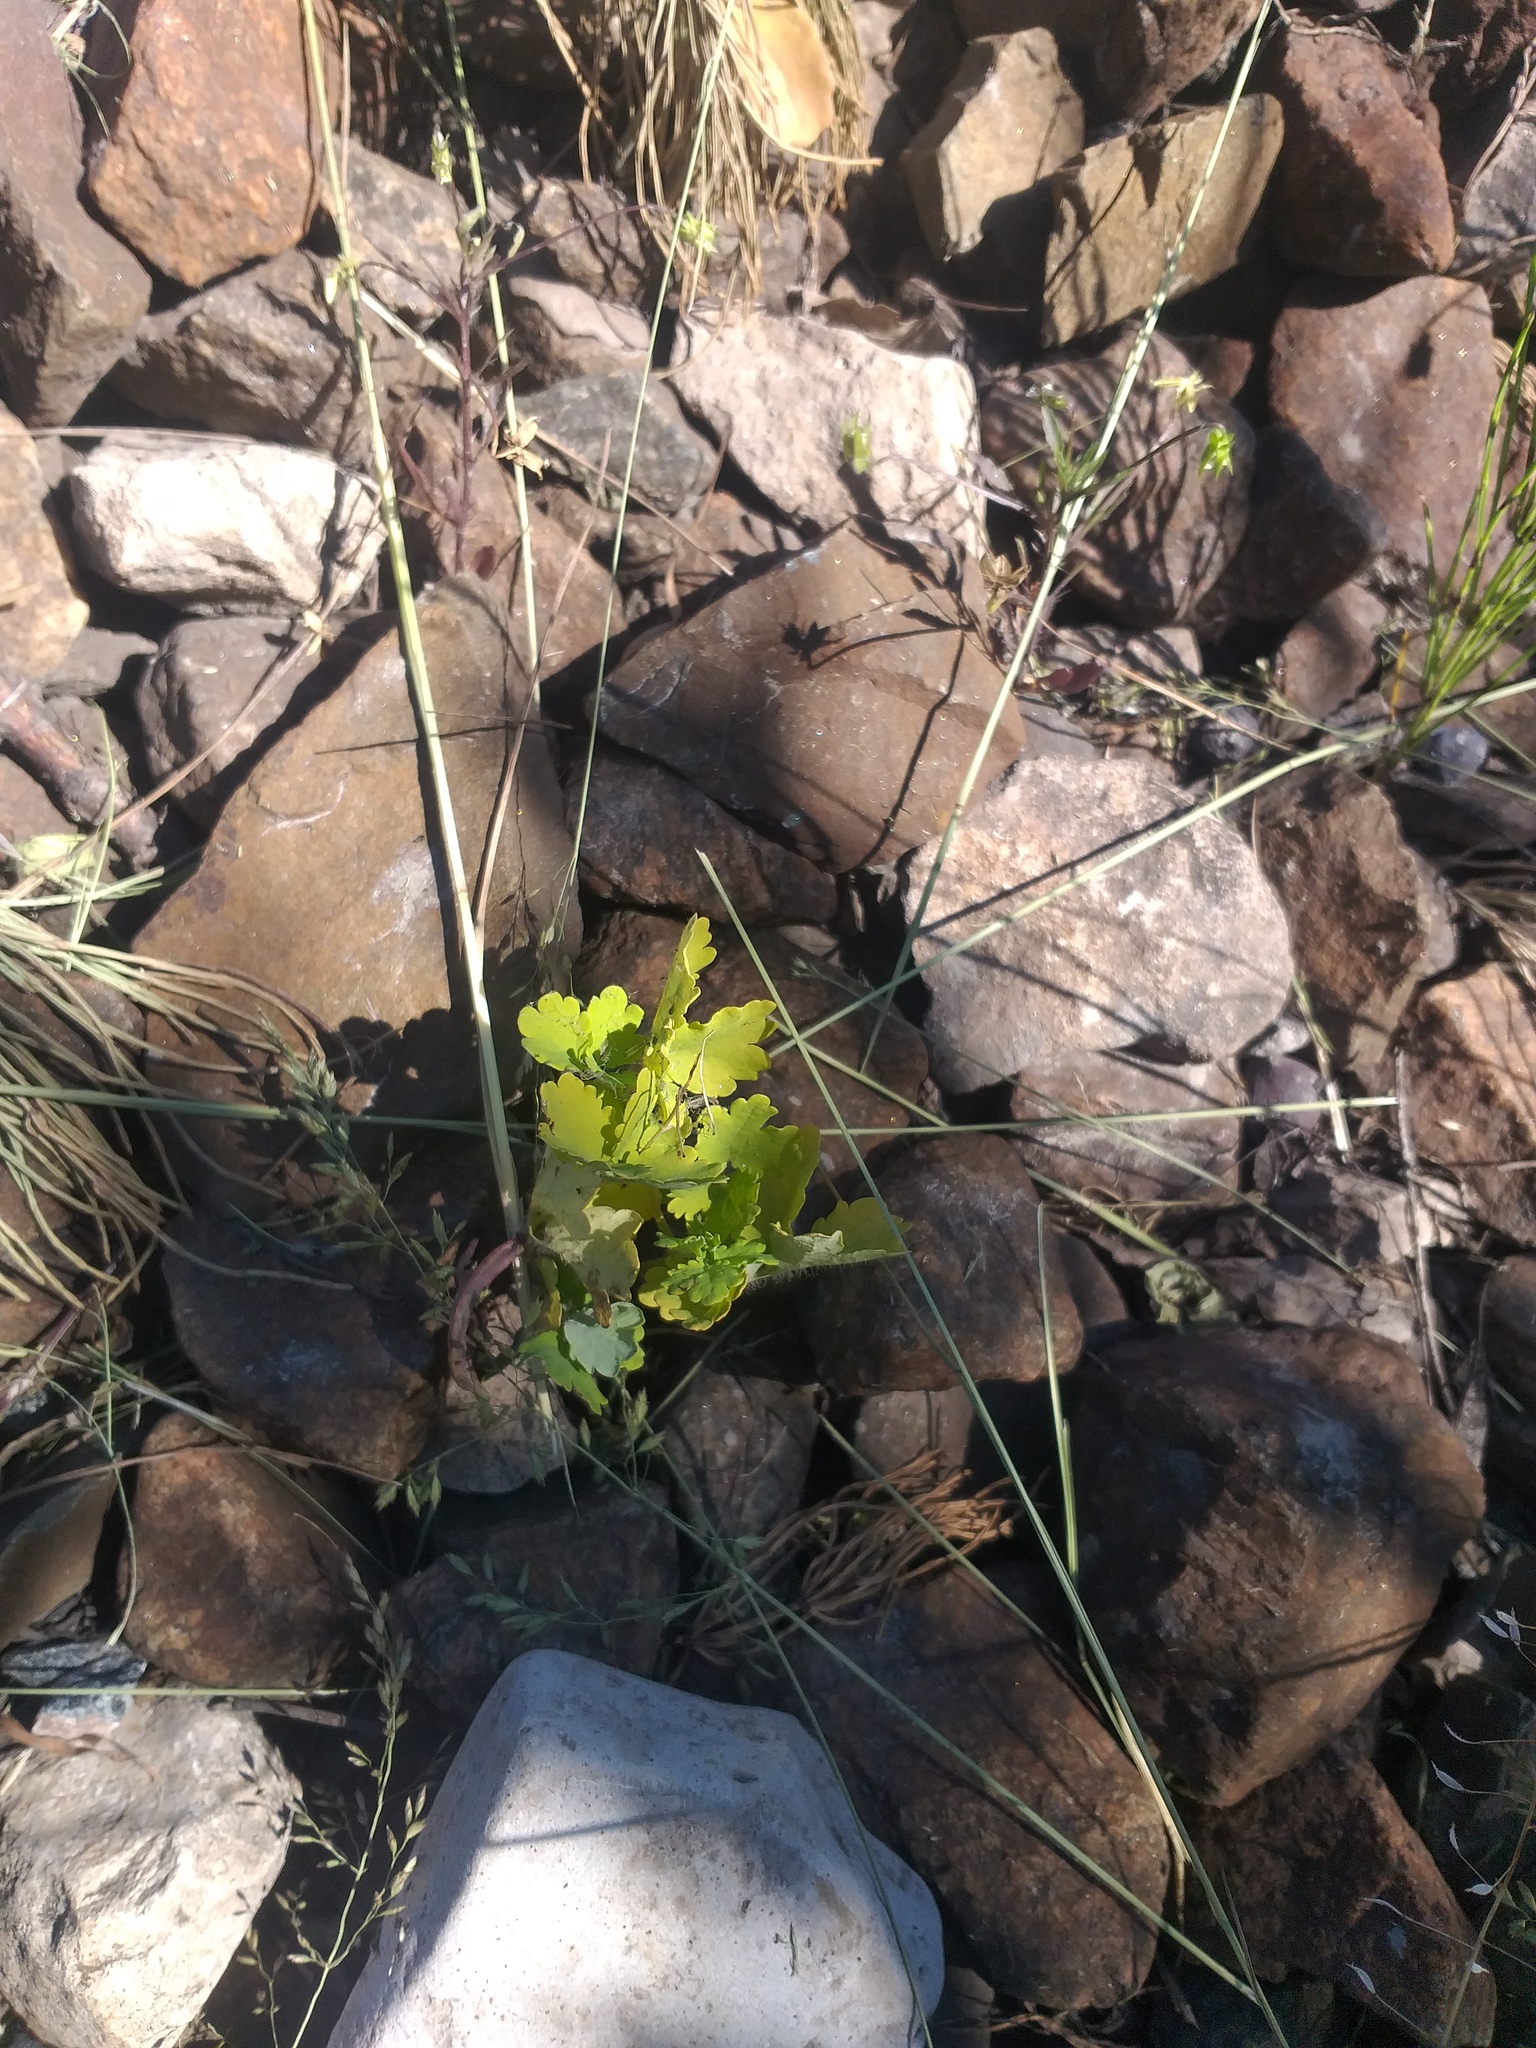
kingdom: Plantae
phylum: Tracheophyta
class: Magnoliopsida
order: Ranunculales
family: Papaveraceae
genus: Chelidonium
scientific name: Chelidonium majus
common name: Greater celandine
